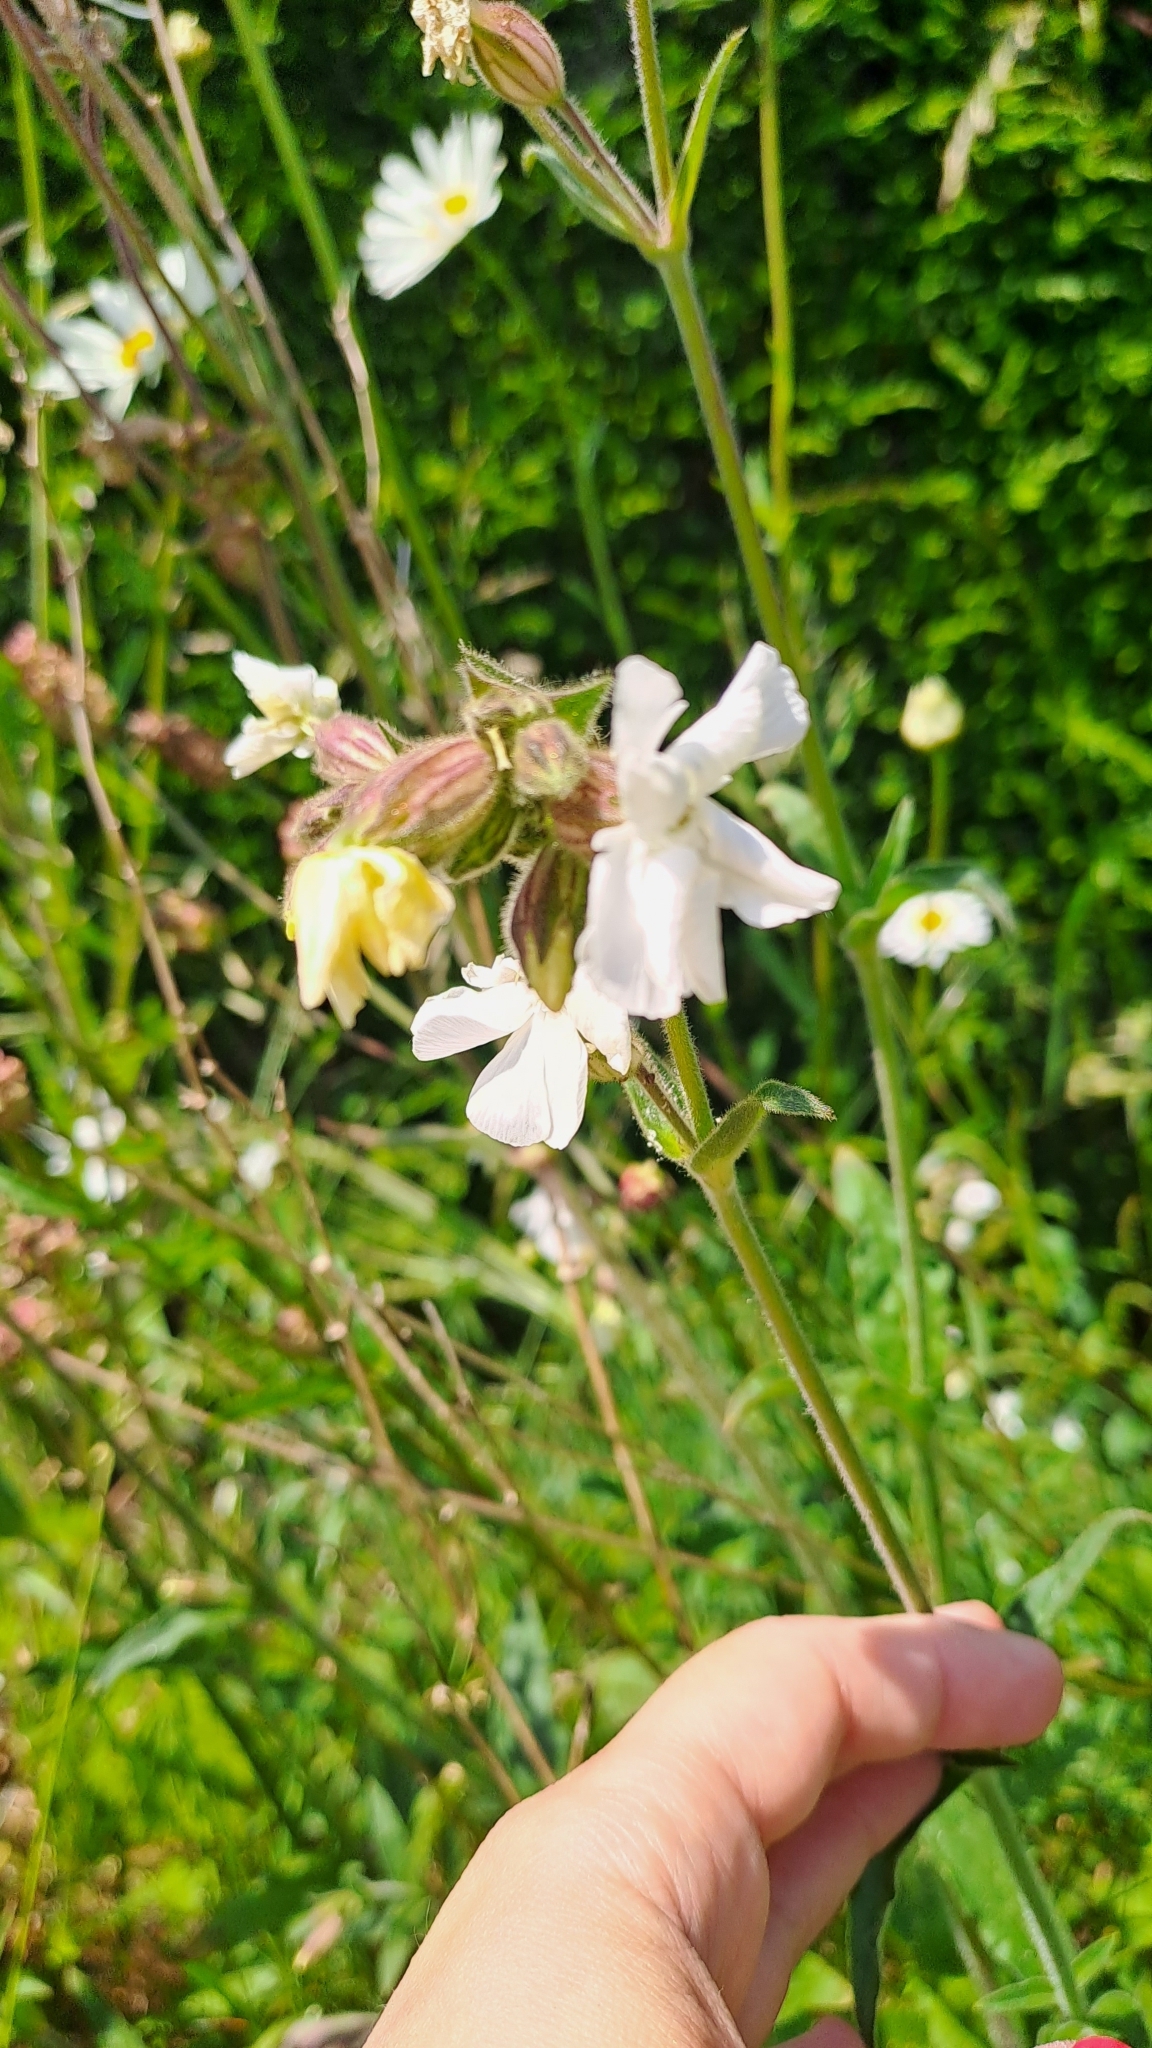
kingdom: Plantae
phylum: Tracheophyta
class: Magnoliopsida
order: Caryophyllales
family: Caryophyllaceae
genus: Silene
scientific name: Silene latifolia
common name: White campion
